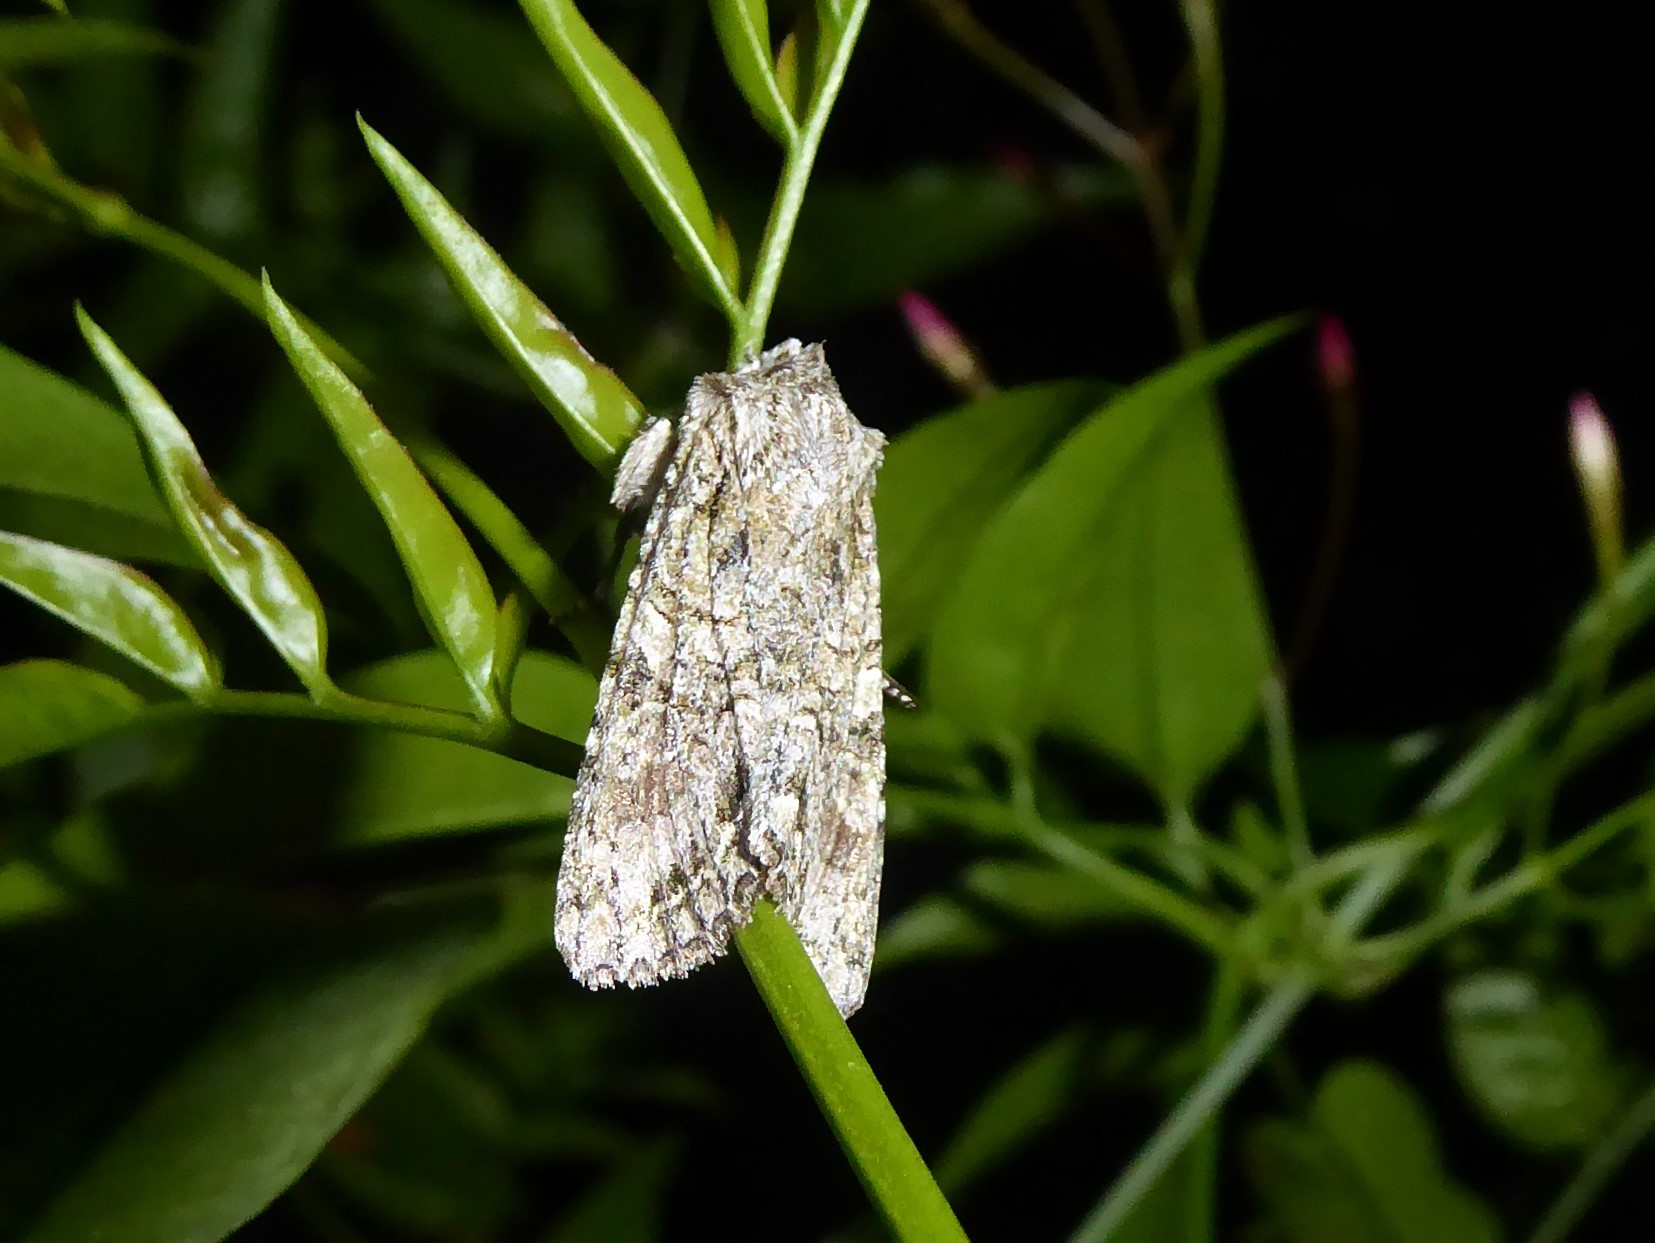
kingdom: Animalia
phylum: Arthropoda
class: Insecta
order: Lepidoptera
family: Noctuidae
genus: Ichneutica
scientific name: Ichneutica mutans
